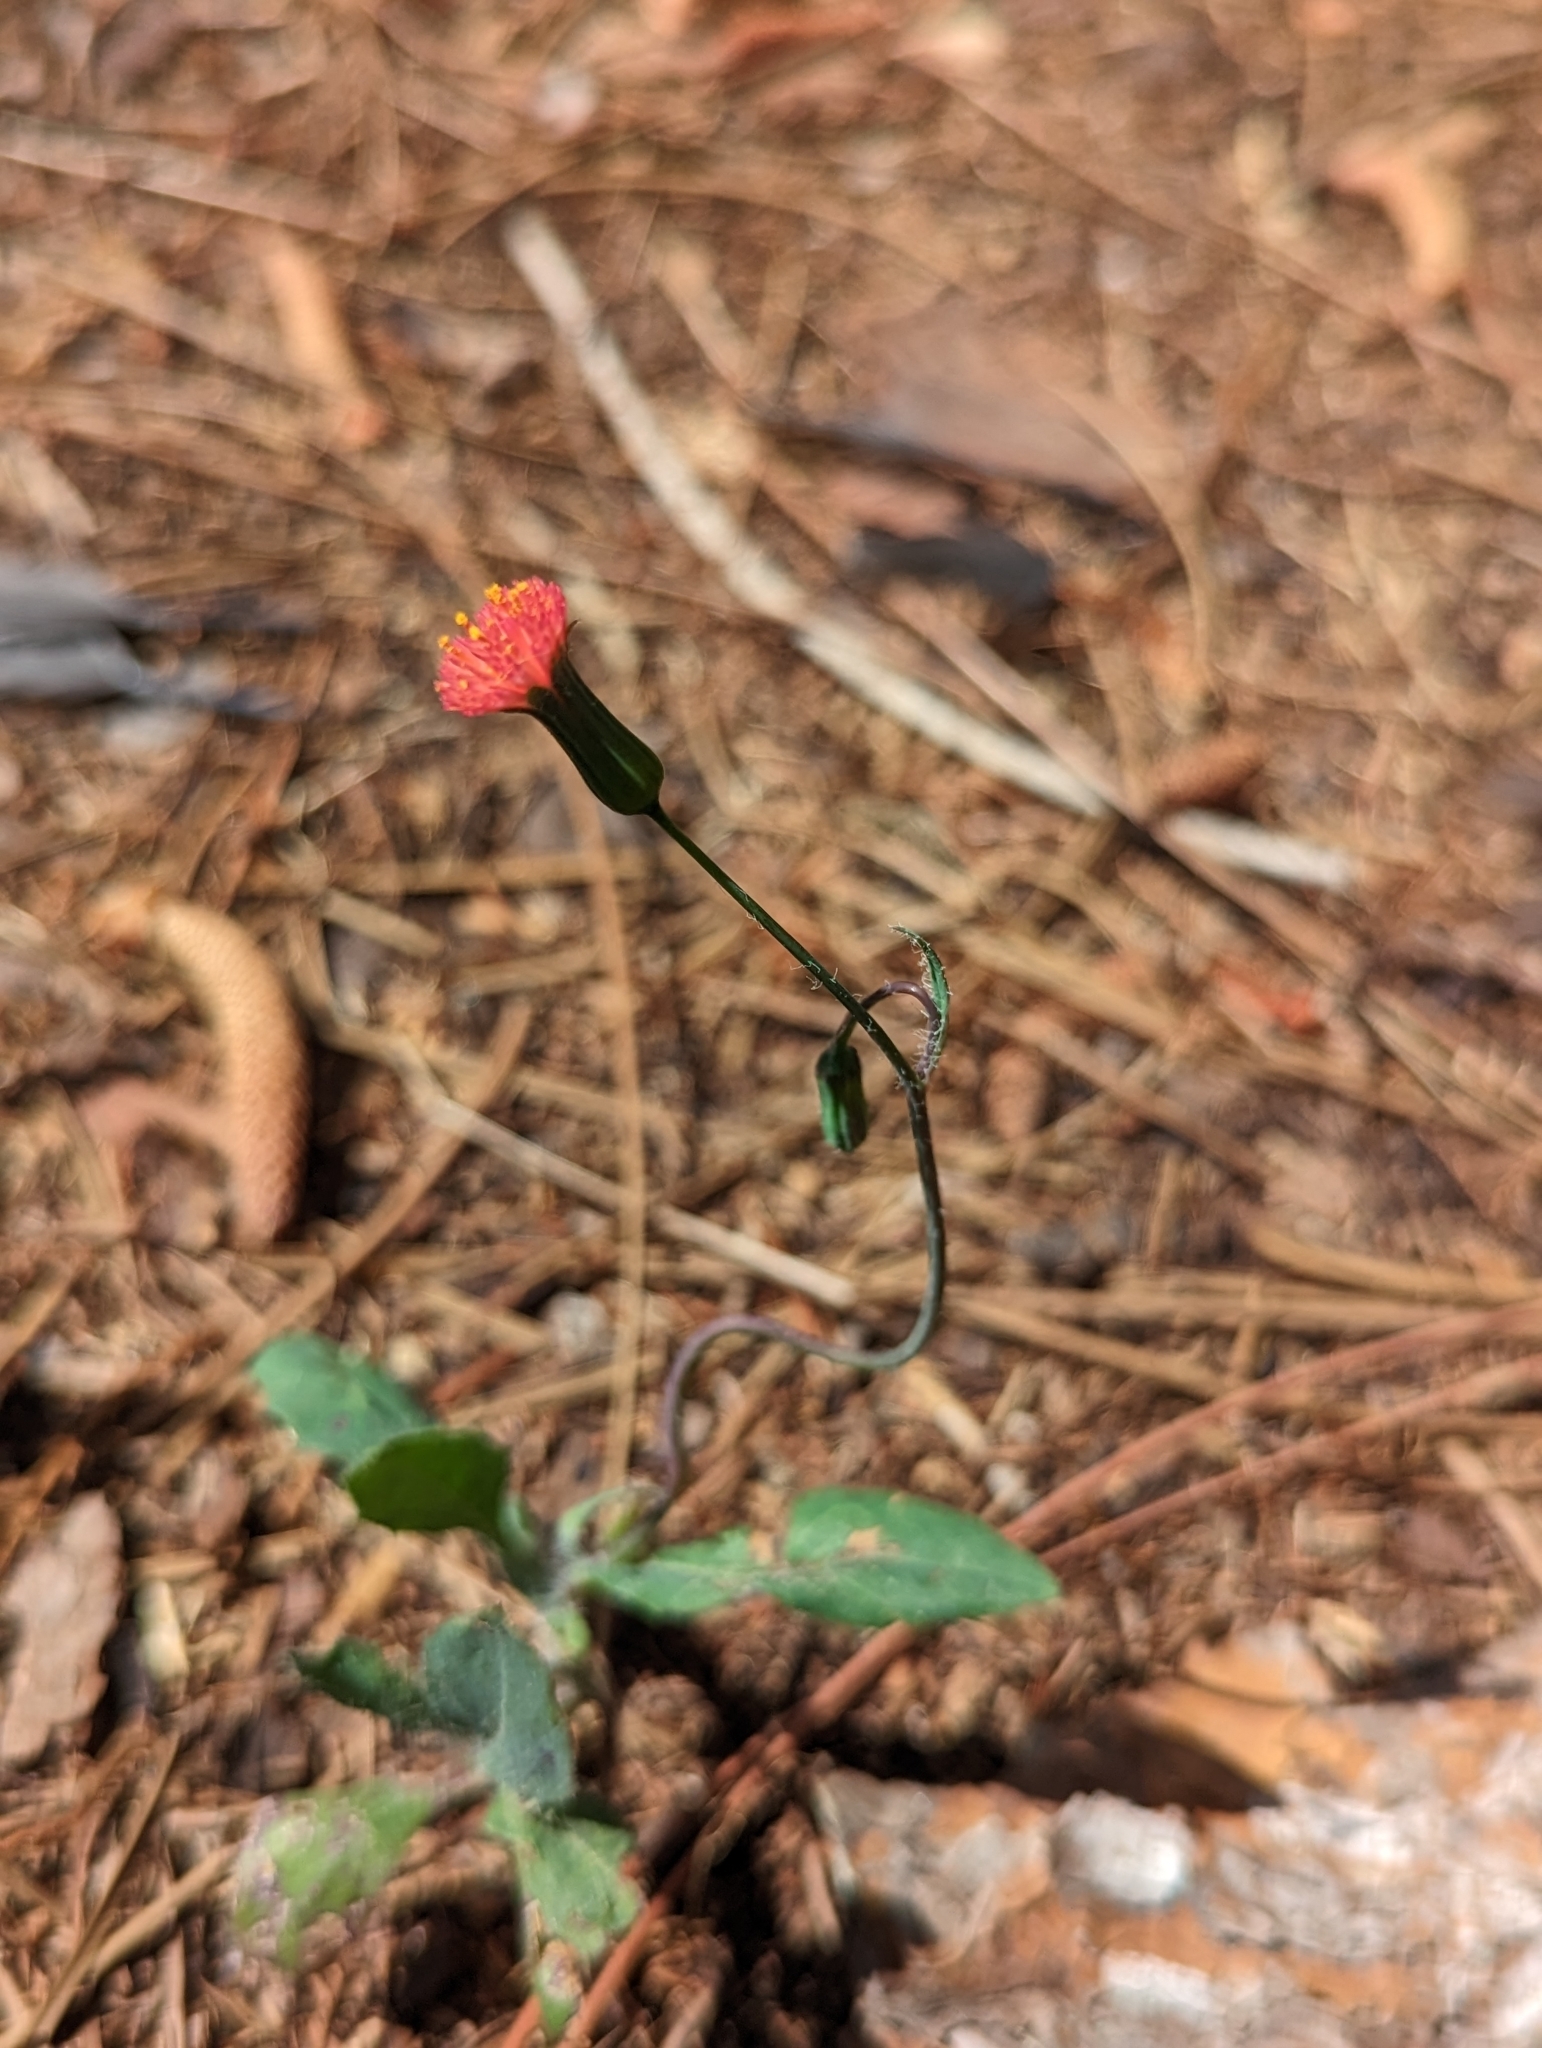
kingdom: Plantae
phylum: Tracheophyta
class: Magnoliopsida
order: Asterales
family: Asteraceae
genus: Emilia
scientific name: Emilia fosbergii
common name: Florida tasselflower
